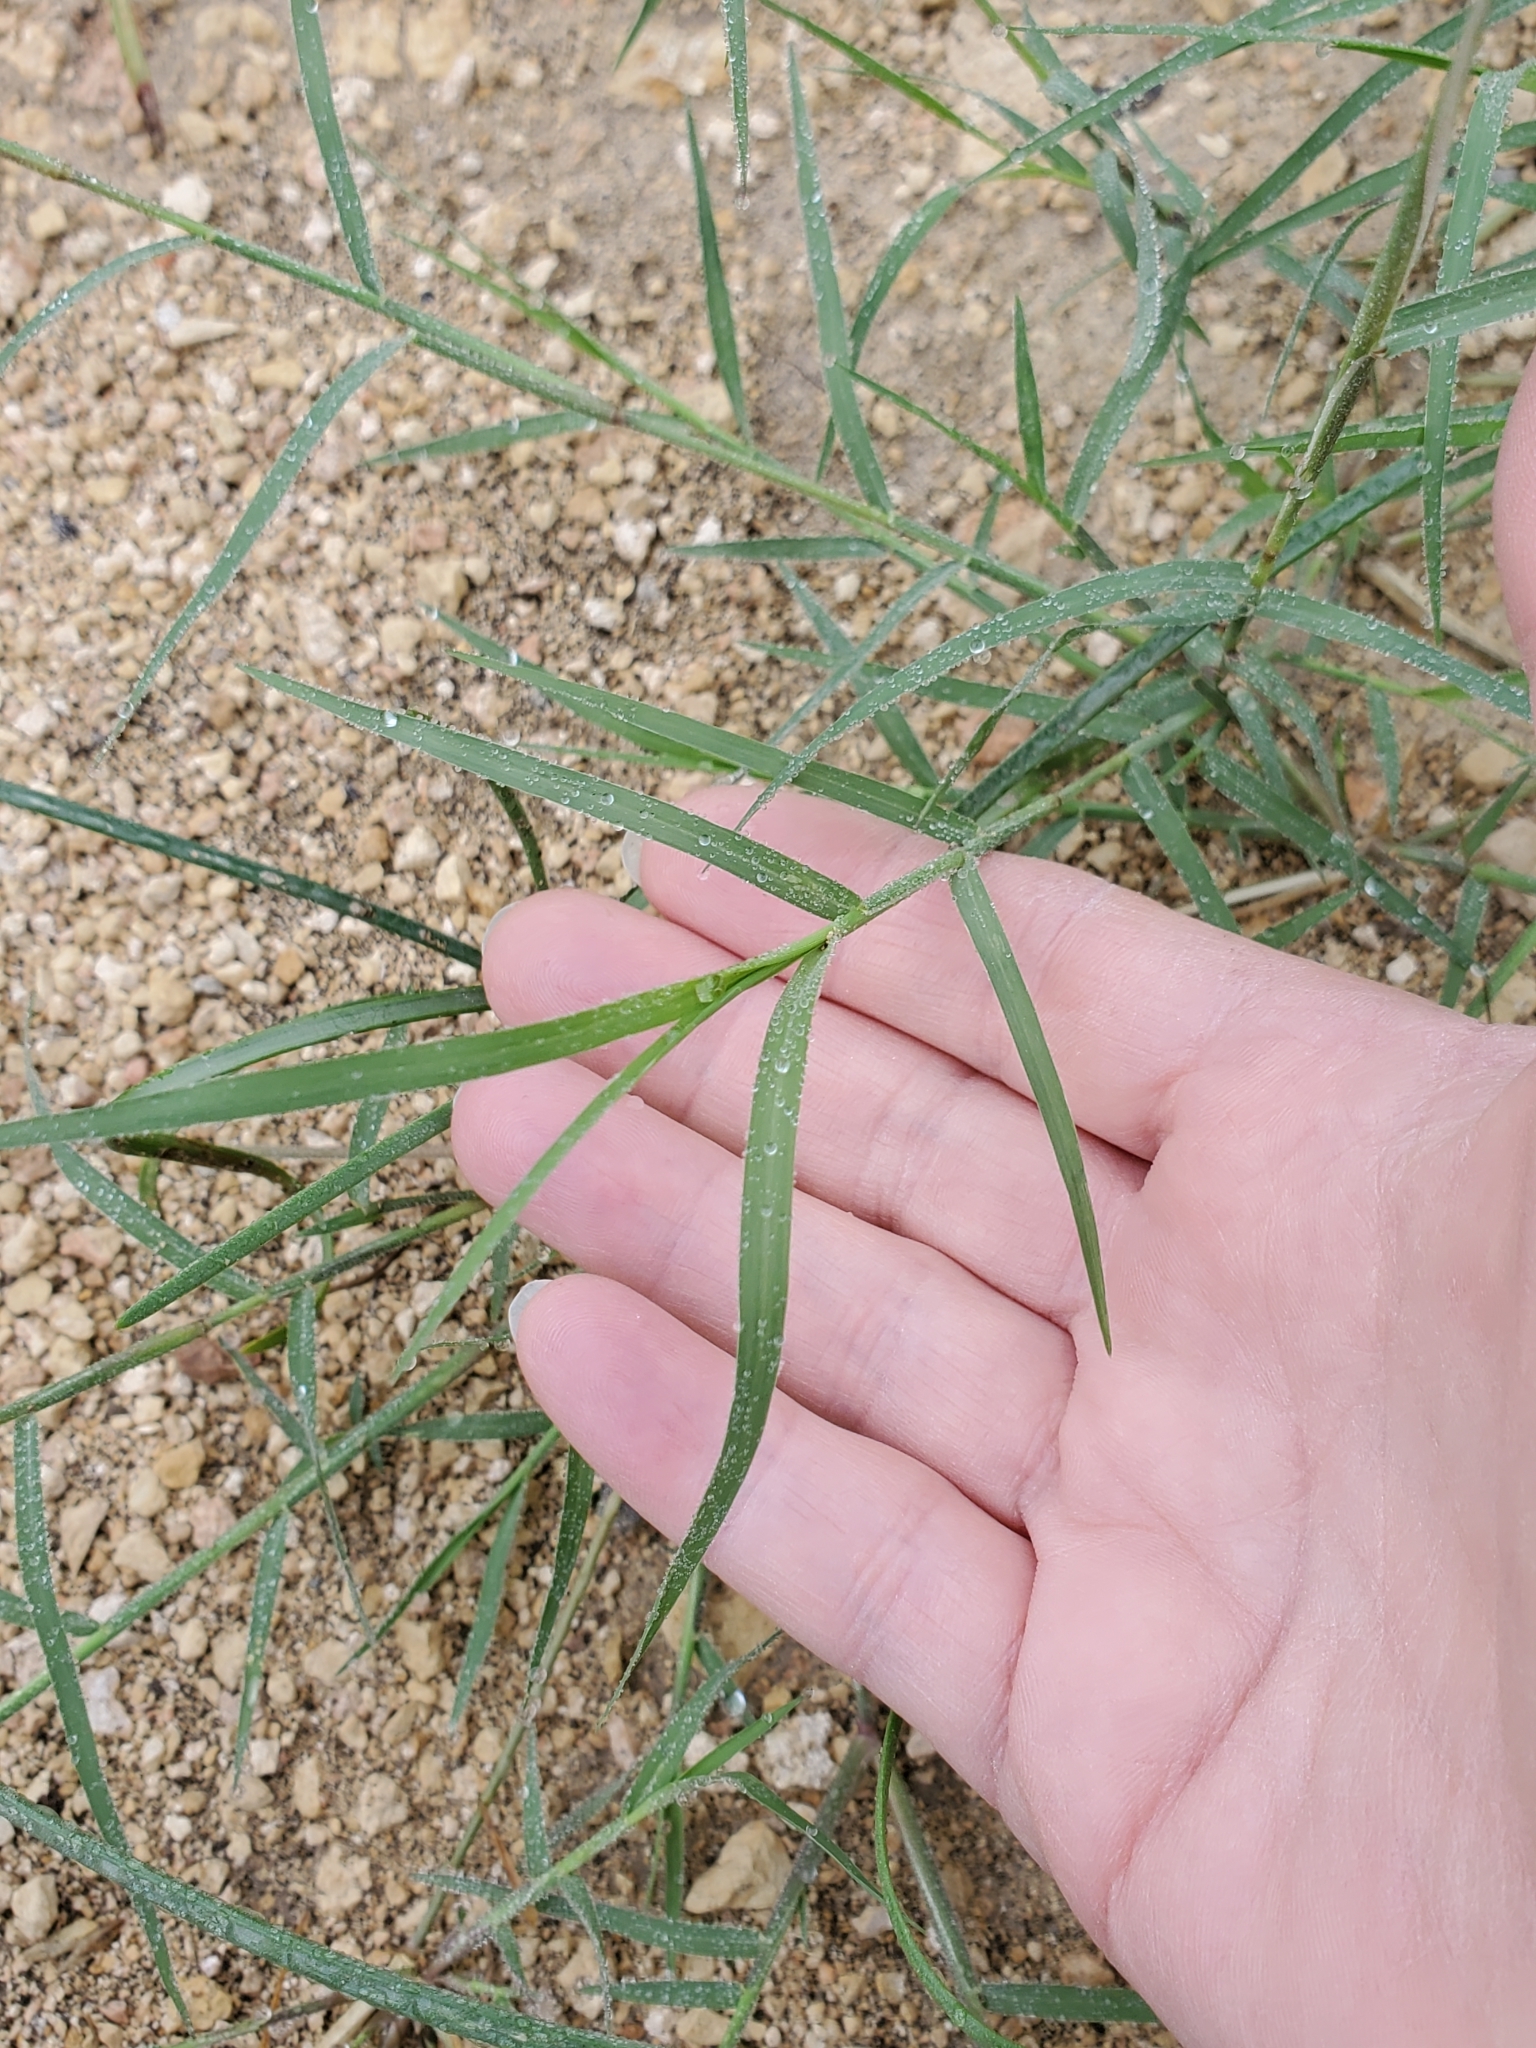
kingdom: Plantae
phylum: Tracheophyta
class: Liliopsida
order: Poales
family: Poaceae
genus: Cynodon
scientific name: Cynodon dactylon
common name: Bermuda grass
